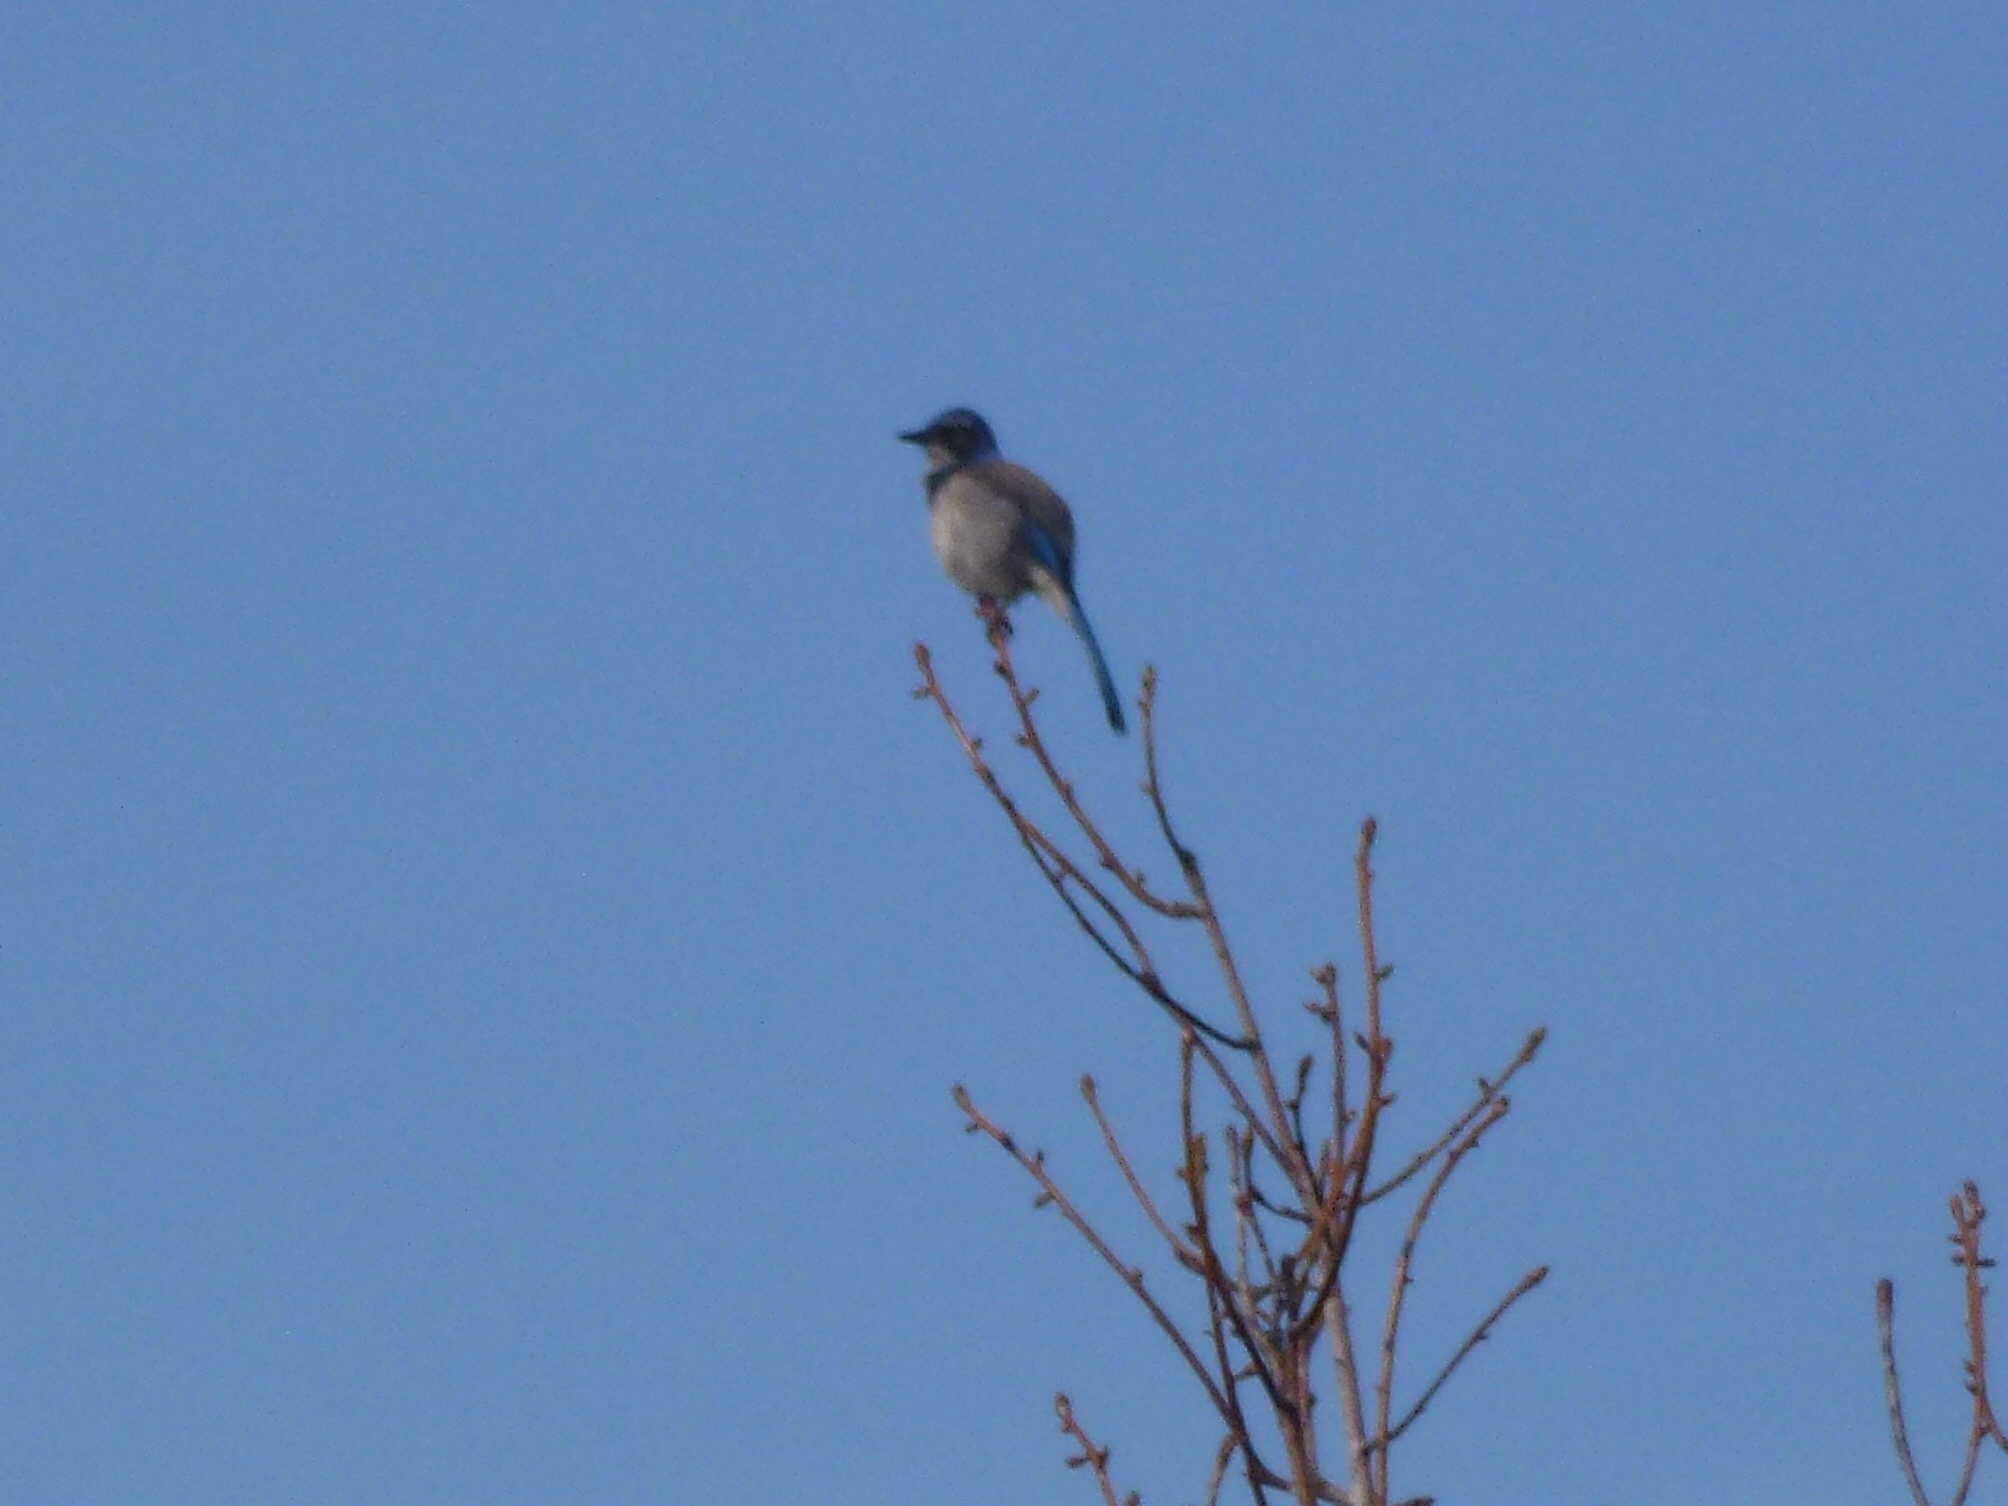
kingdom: Animalia
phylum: Chordata
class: Aves
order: Passeriformes
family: Corvidae
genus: Aphelocoma
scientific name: Aphelocoma californica
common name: California scrub-jay
